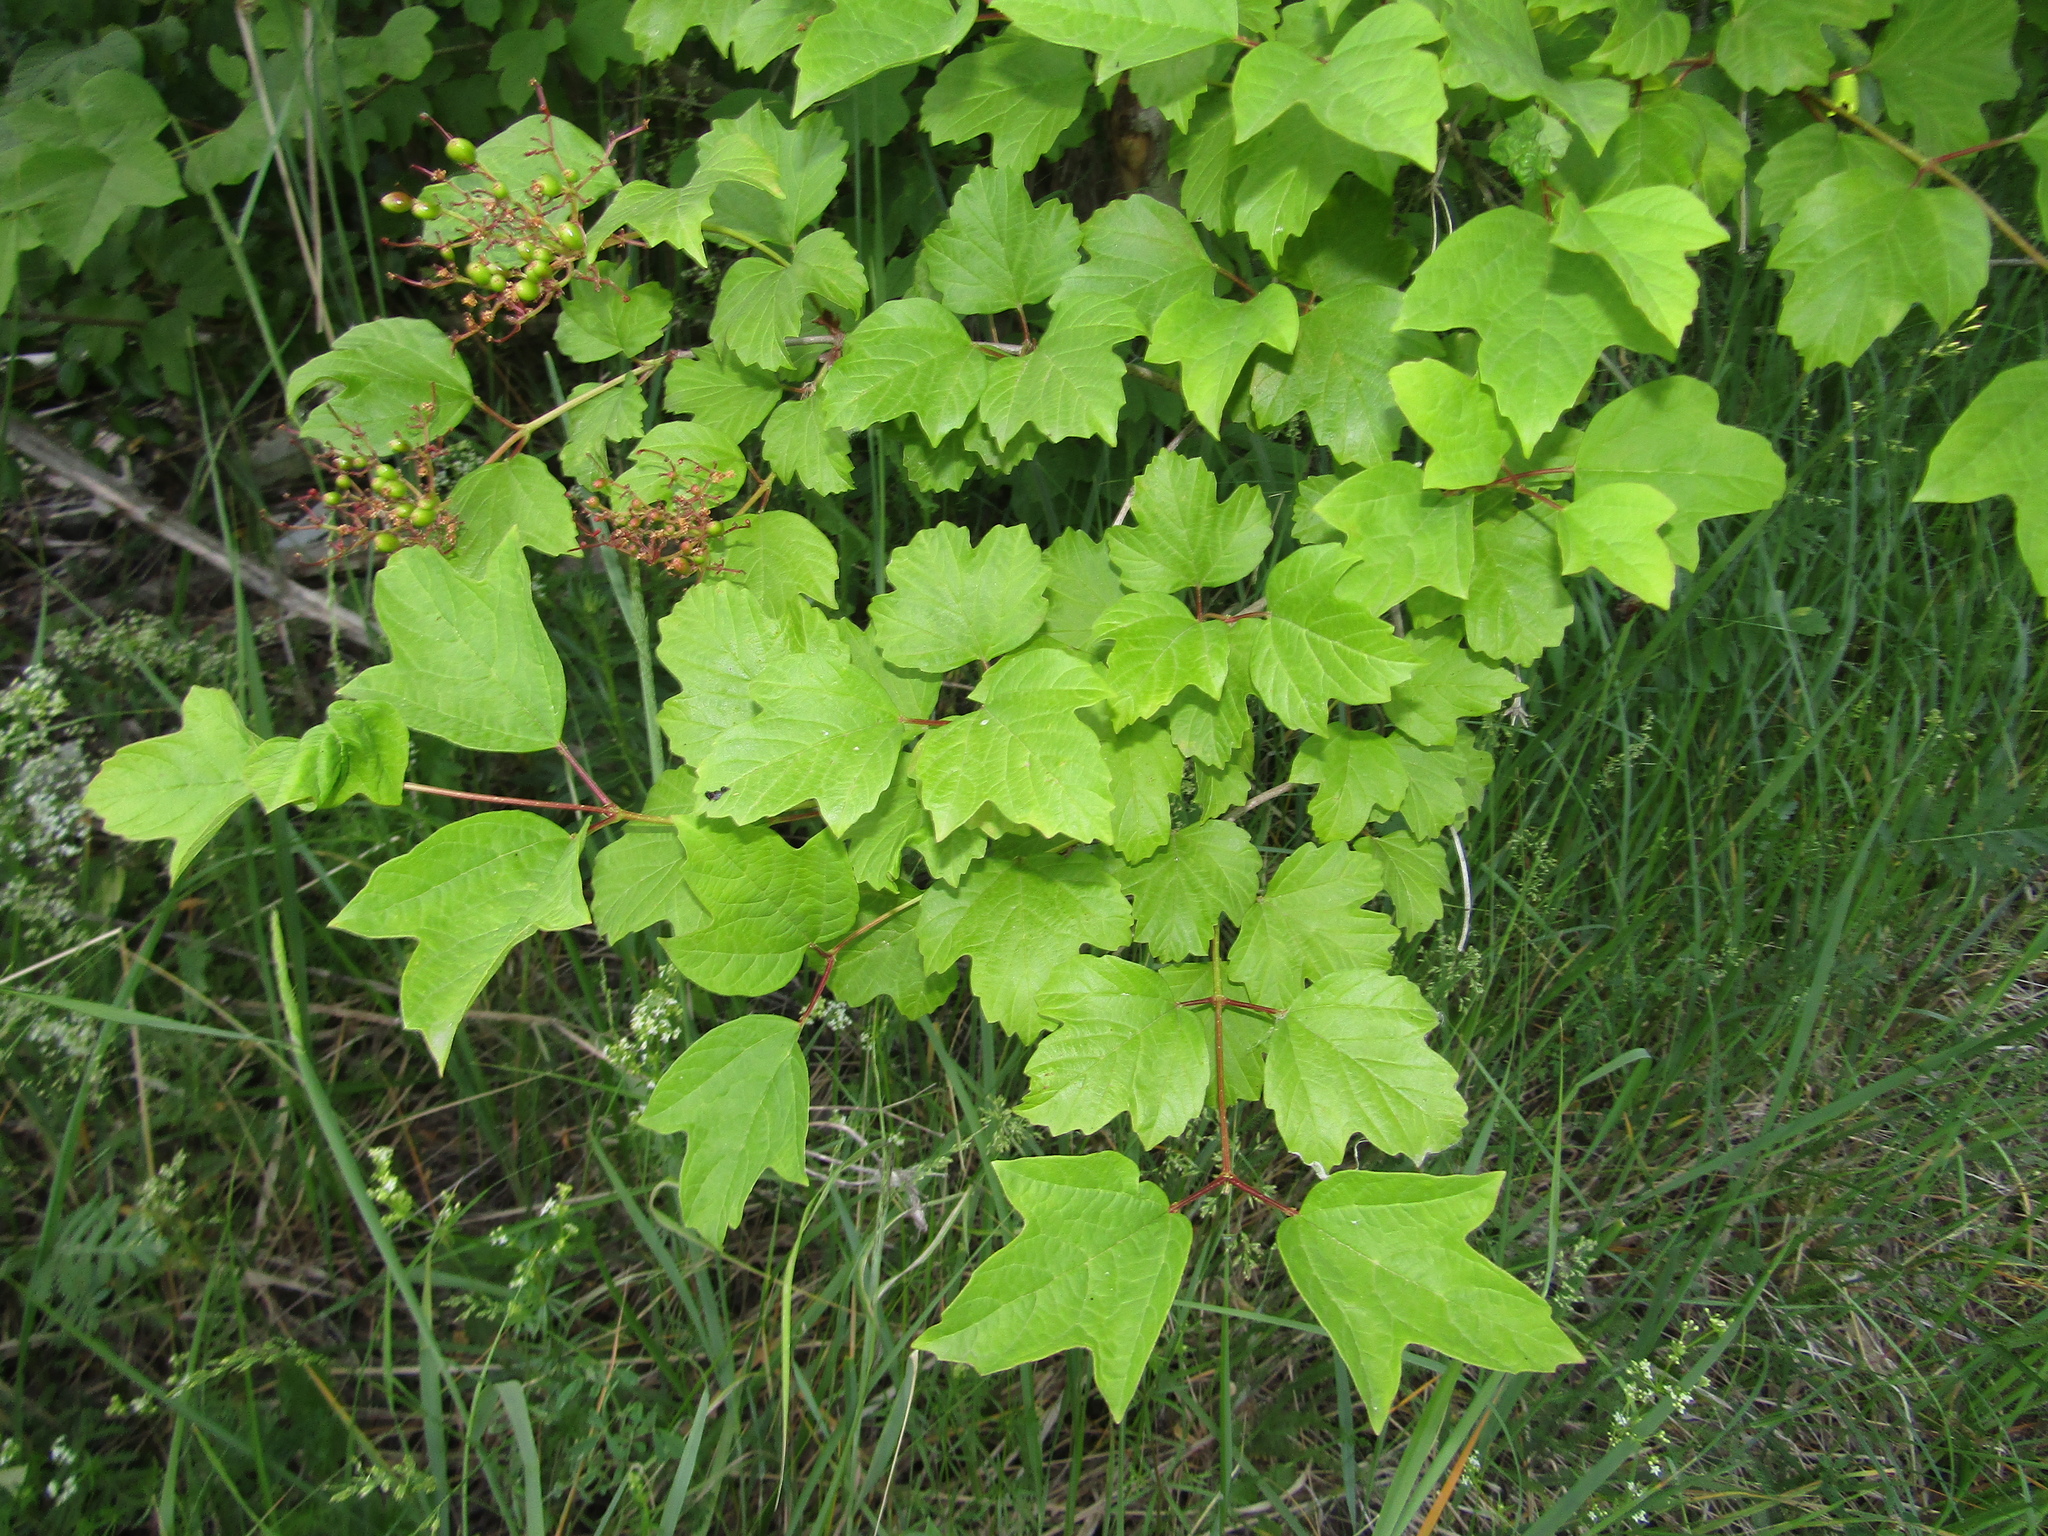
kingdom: Plantae
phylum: Tracheophyta
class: Magnoliopsida
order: Dipsacales
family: Viburnaceae
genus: Viburnum
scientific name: Viburnum opulus
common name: Guelder-rose
